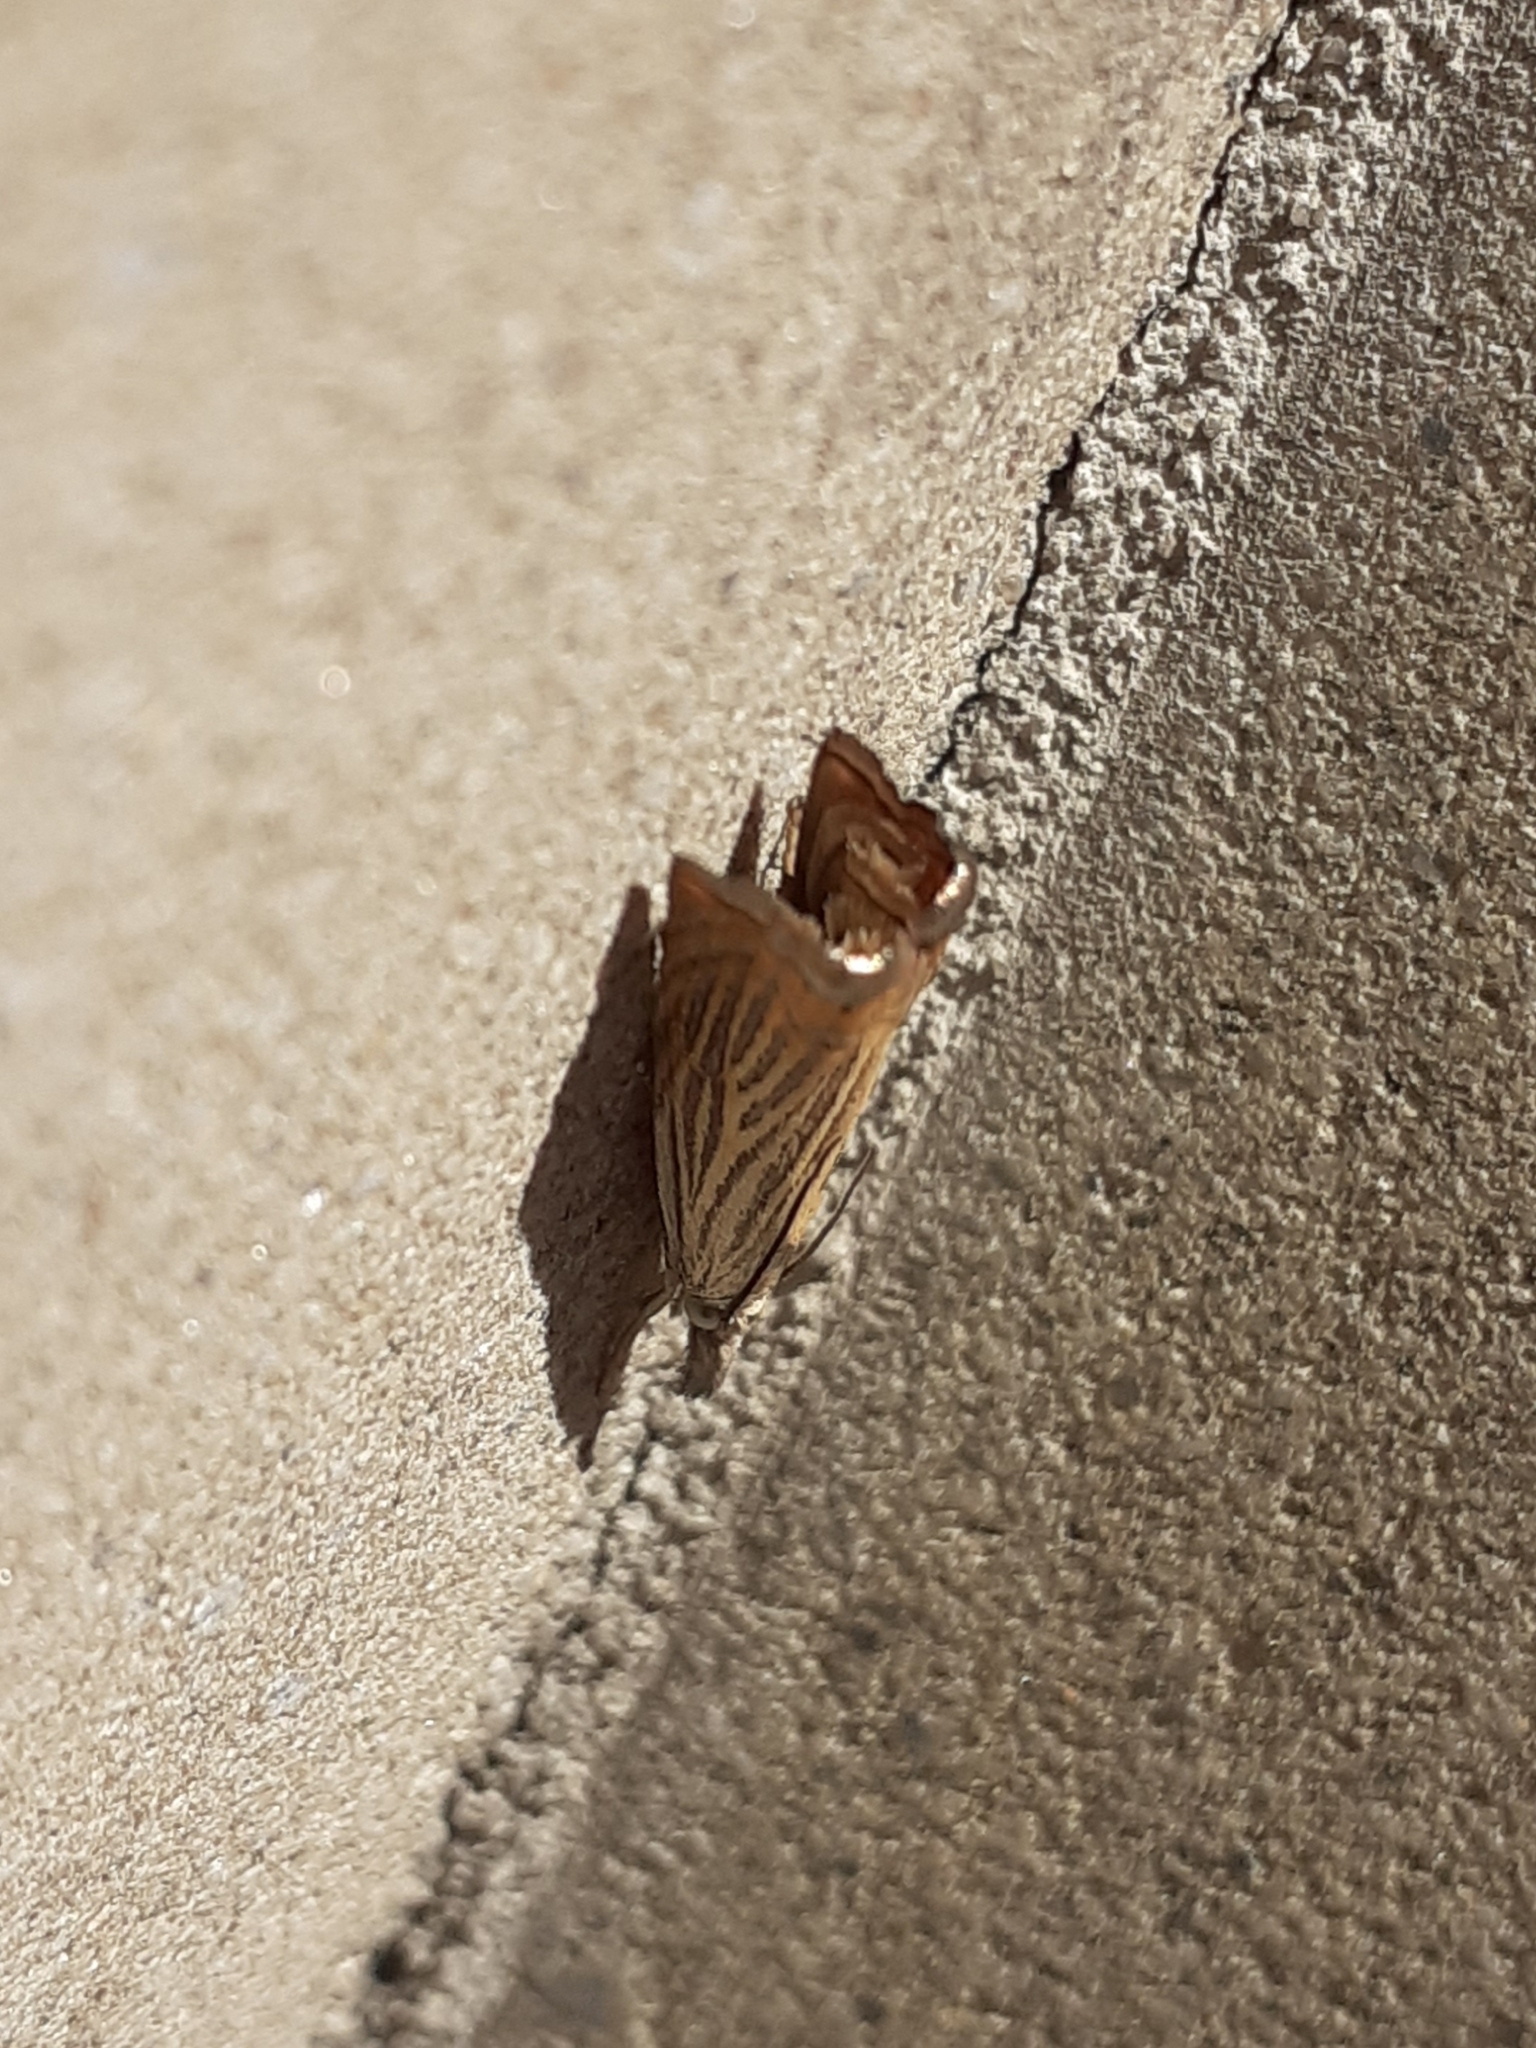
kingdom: Animalia
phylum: Arthropoda
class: Insecta
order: Lepidoptera
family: Crambidae
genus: Chrysoteuchia
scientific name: Chrysoteuchia culmella
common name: Garden grass-veneer
